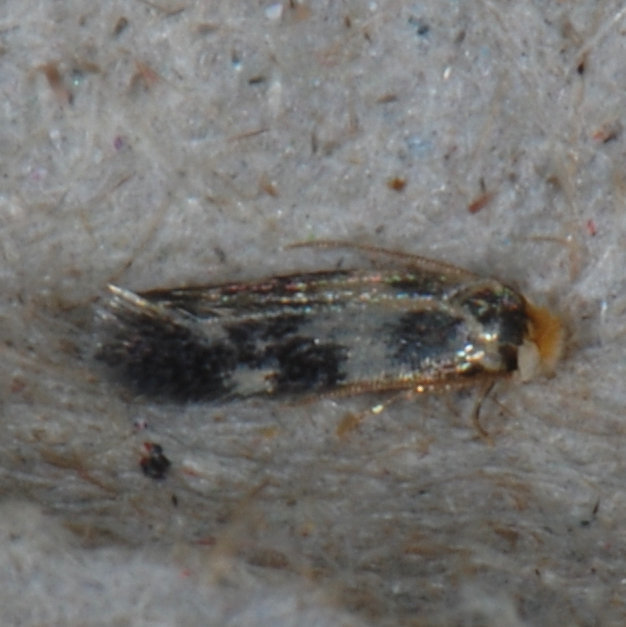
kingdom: Animalia
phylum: Arthropoda
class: Insecta
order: Lepidoptera
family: Nepticulidae
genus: Etainia
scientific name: Etainia sericopeza
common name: Leafminer
